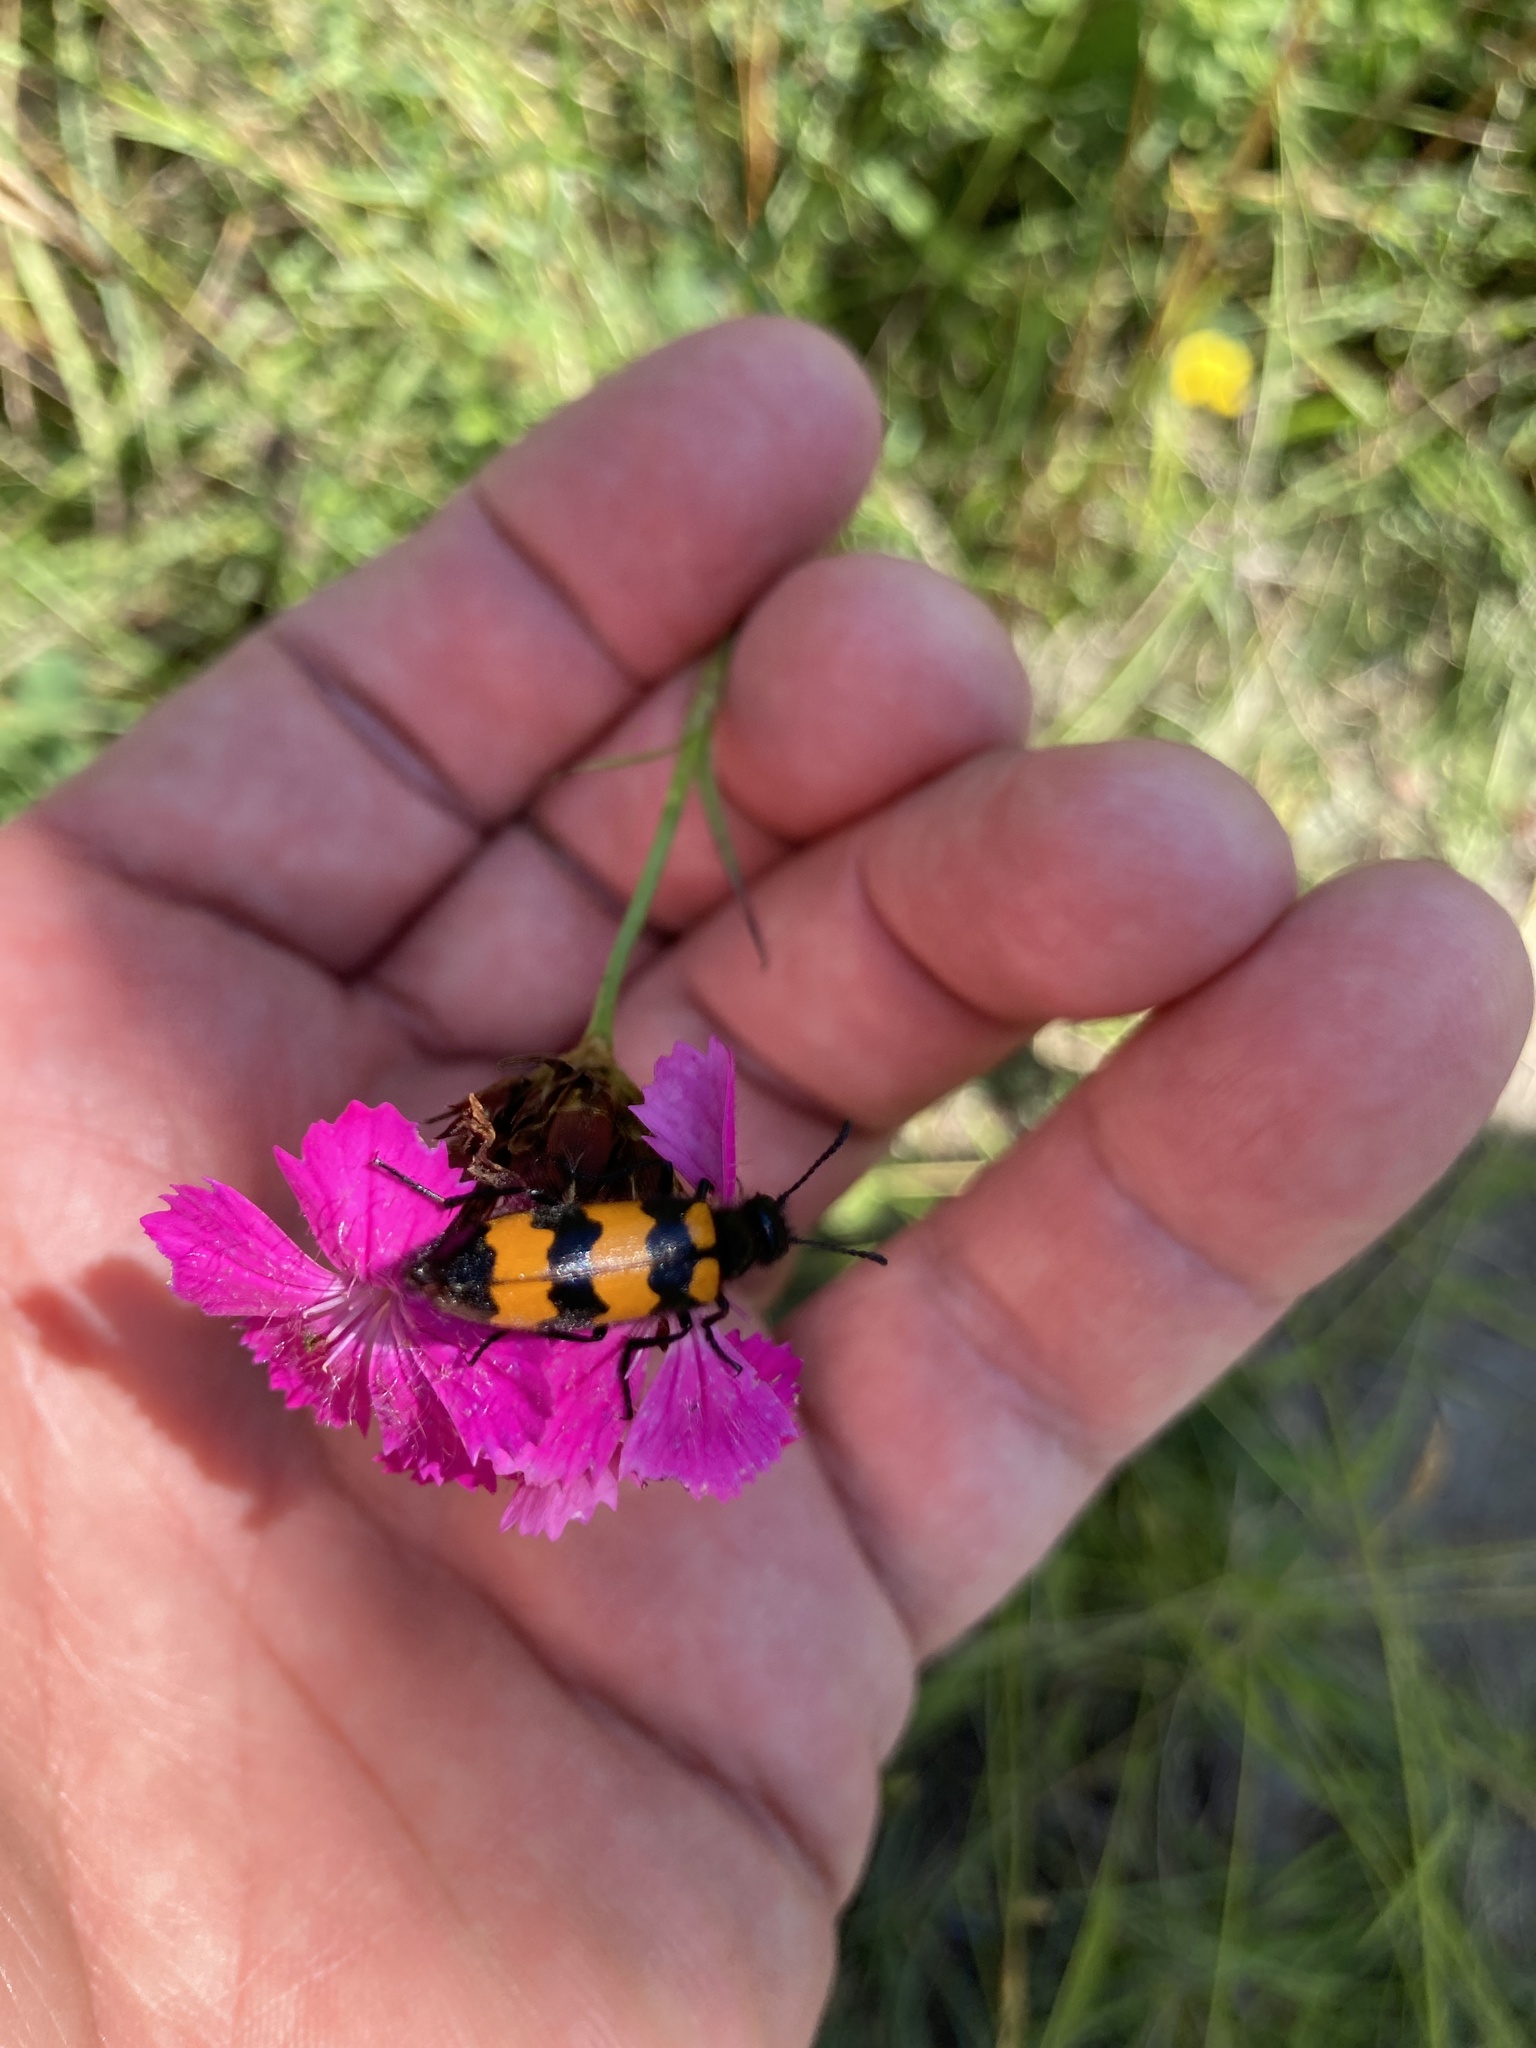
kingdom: Animalia
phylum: Arthropoda
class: Insecta
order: Coleoptera
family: Meloidae
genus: Mylabris
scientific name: Mylabris variabilis
